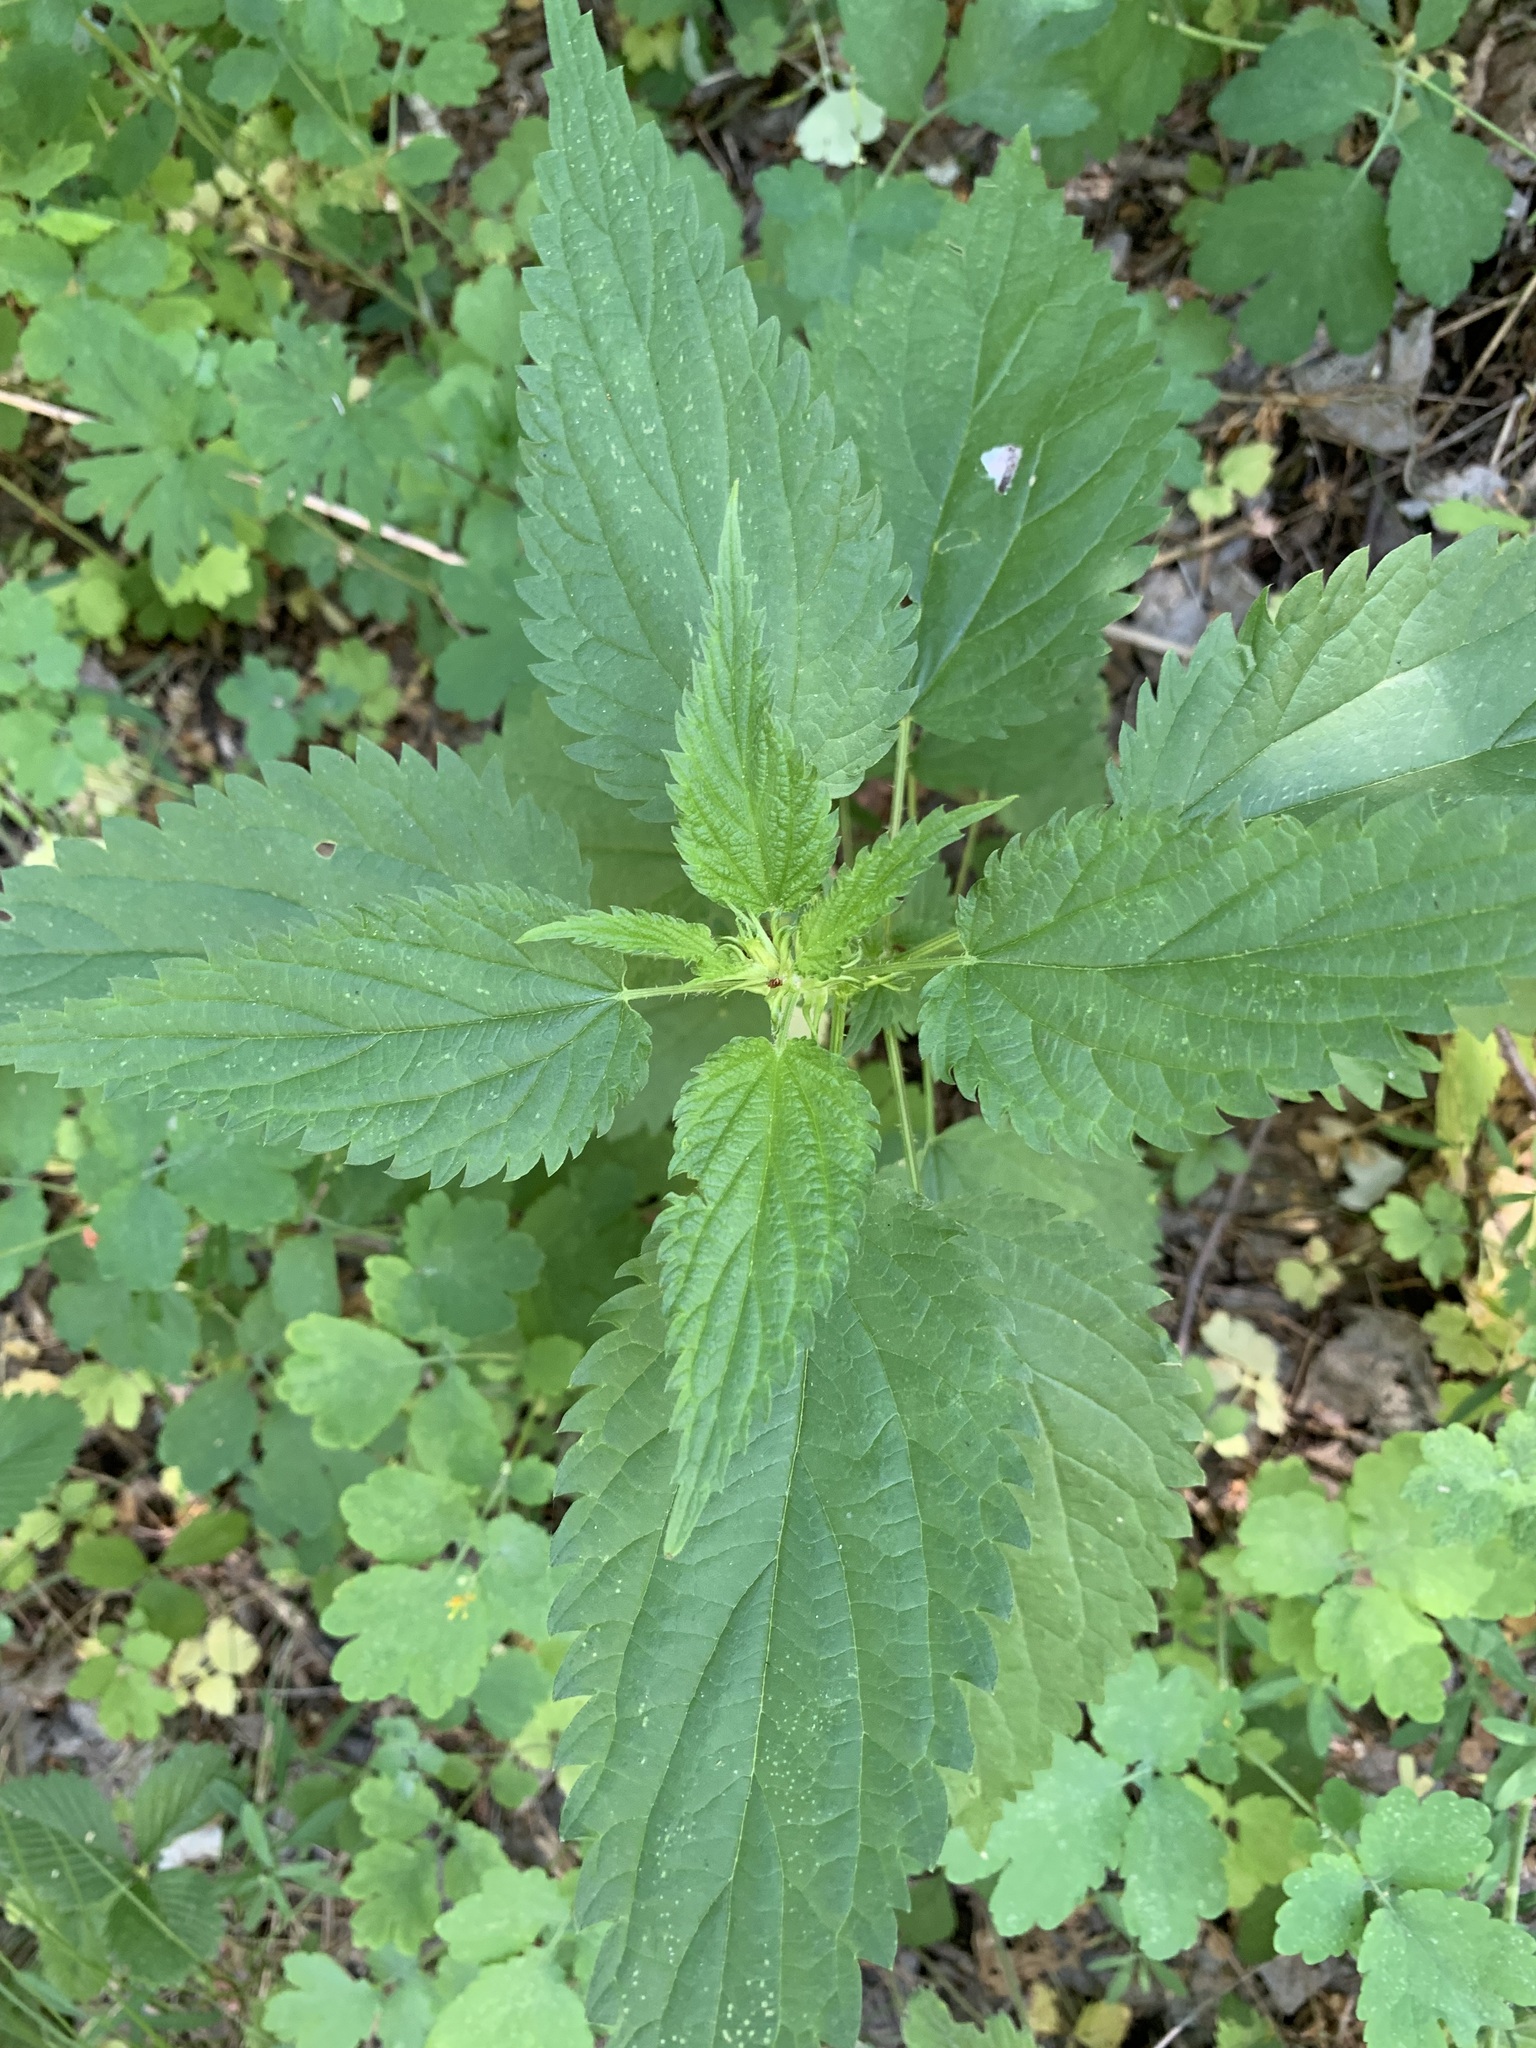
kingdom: Plantae
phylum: Tracheophyta
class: Magnoliopsida
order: Rosales
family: Urticaceae
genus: Urtica
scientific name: Urtica dioica
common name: Common nettle
